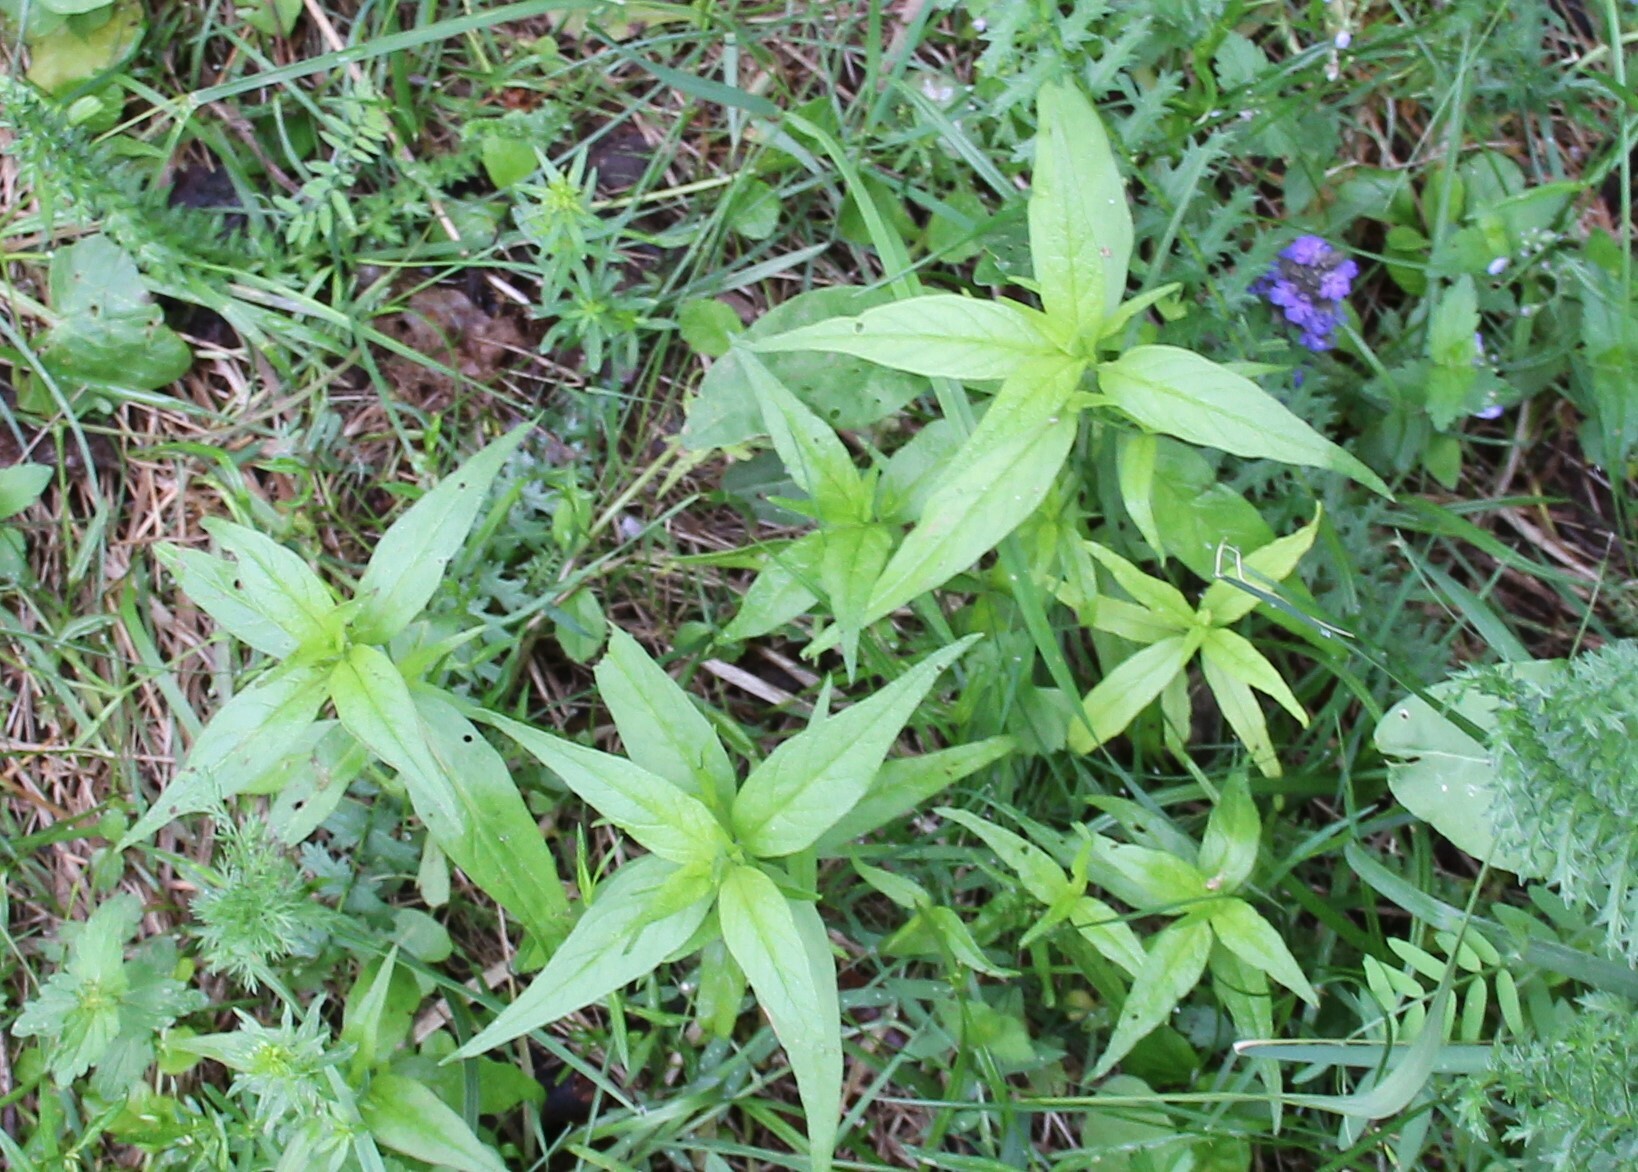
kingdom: Plantae
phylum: Tracheophyta
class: Magnoliopsida
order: Lamiales
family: Orobanchaceae
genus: Melampyrum
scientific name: Melampyrum nemorosum
